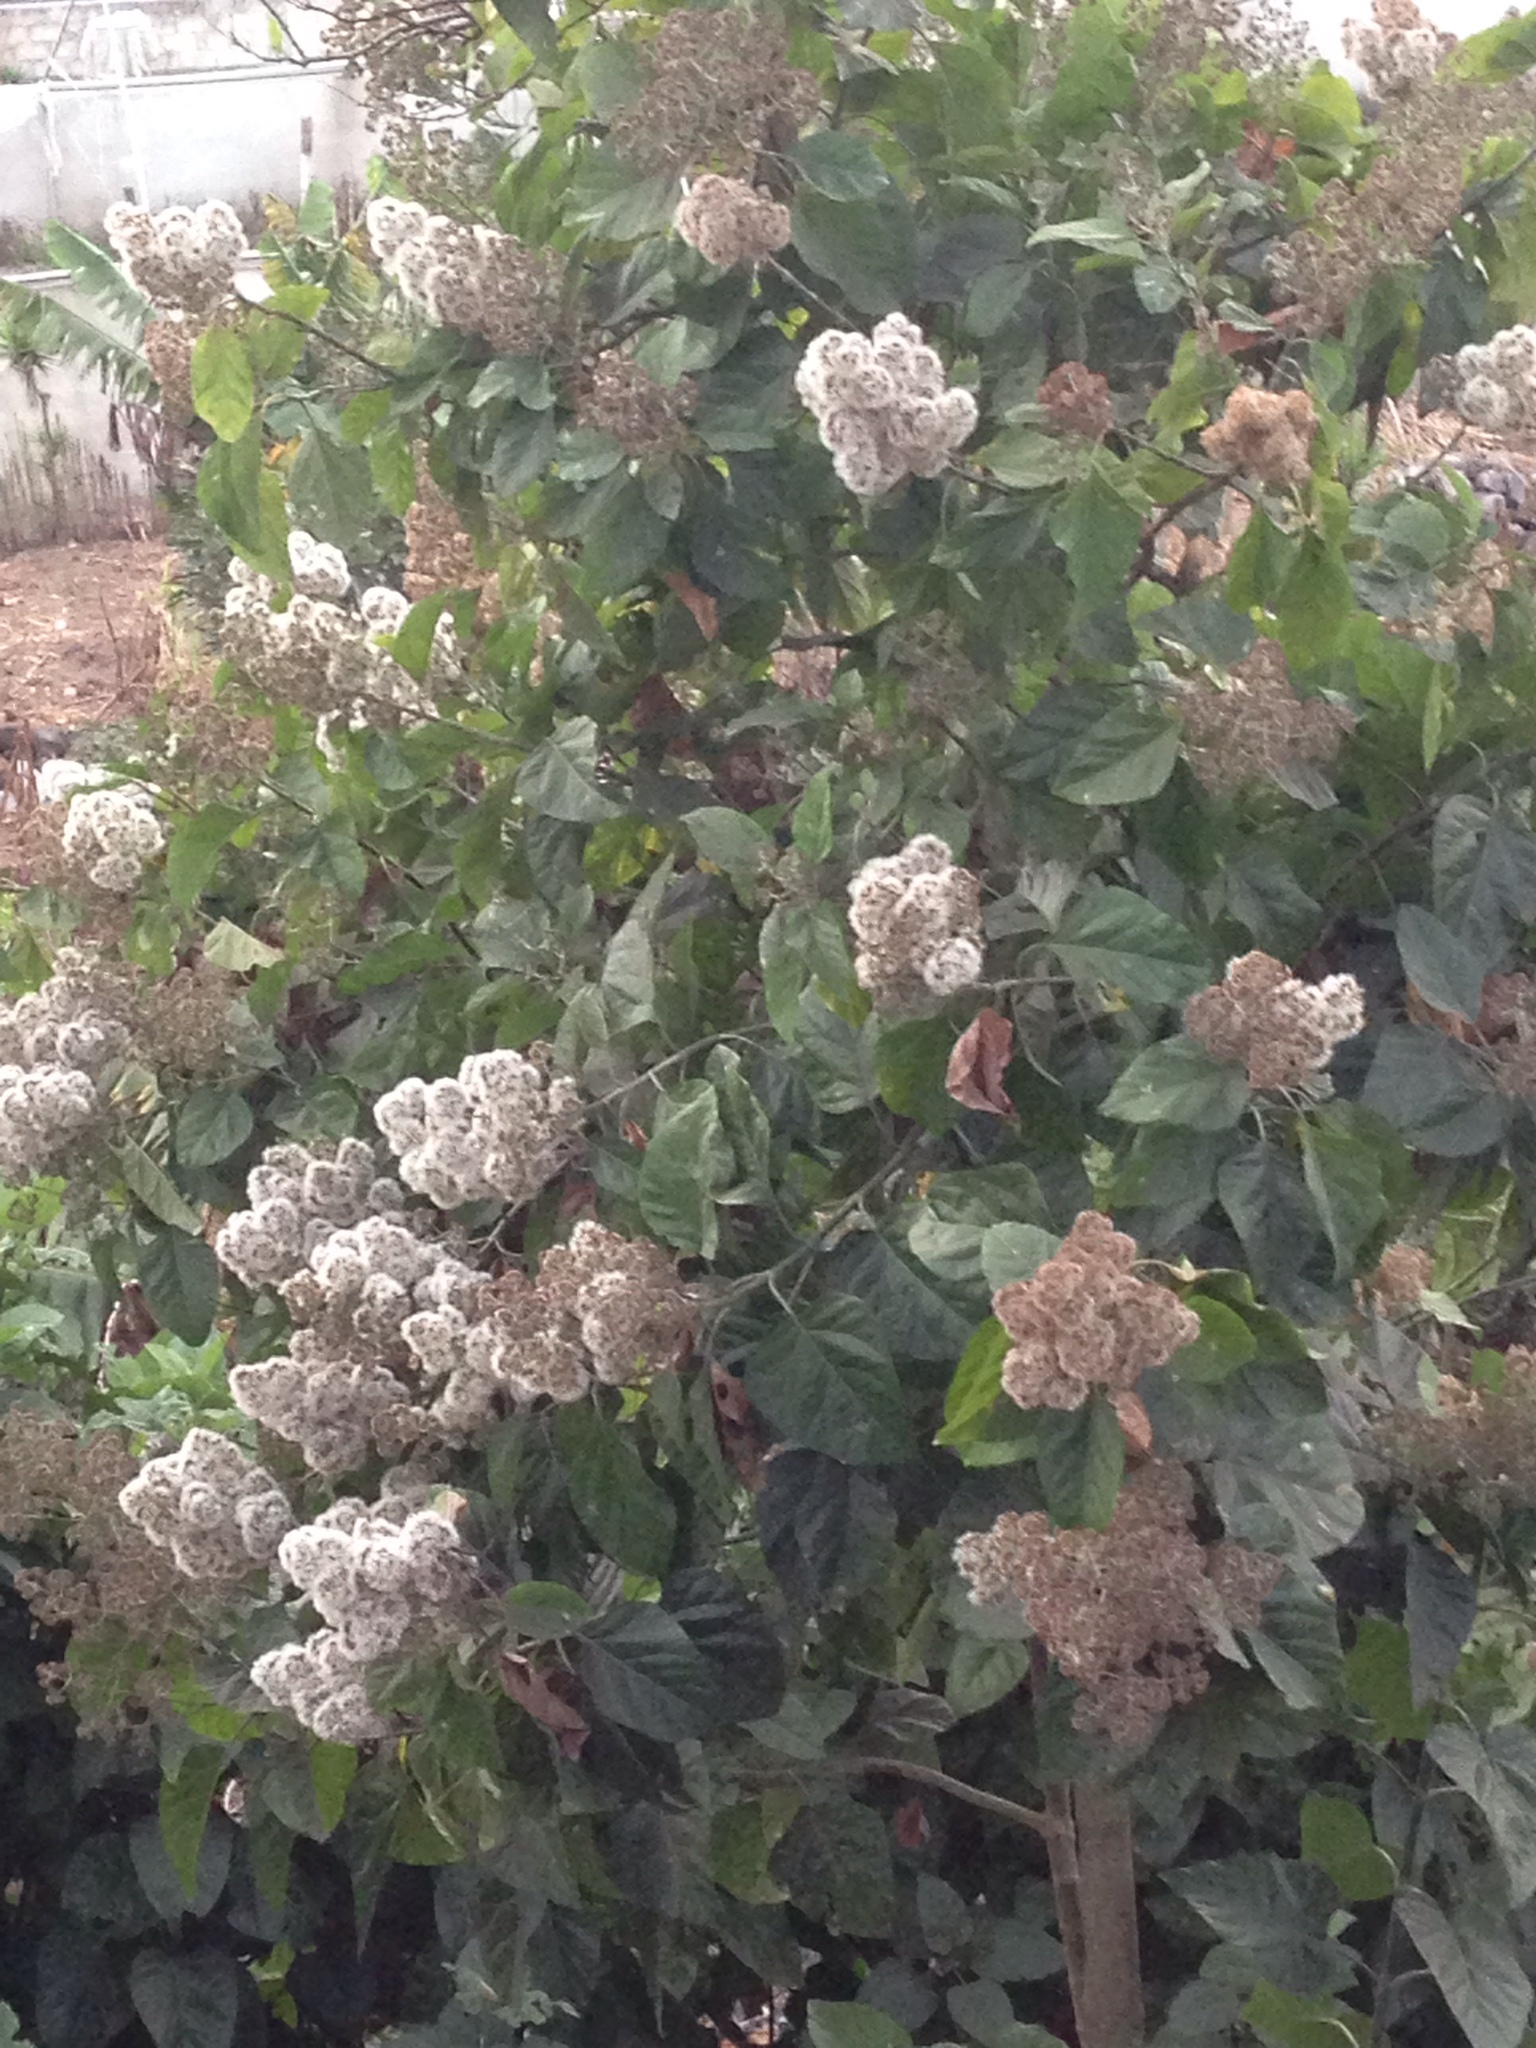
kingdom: Plantae
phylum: Tracheophyta
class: Magnoliopsida
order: Asterales
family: Asteraceae
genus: Critonia
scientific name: Critonia morifolia
